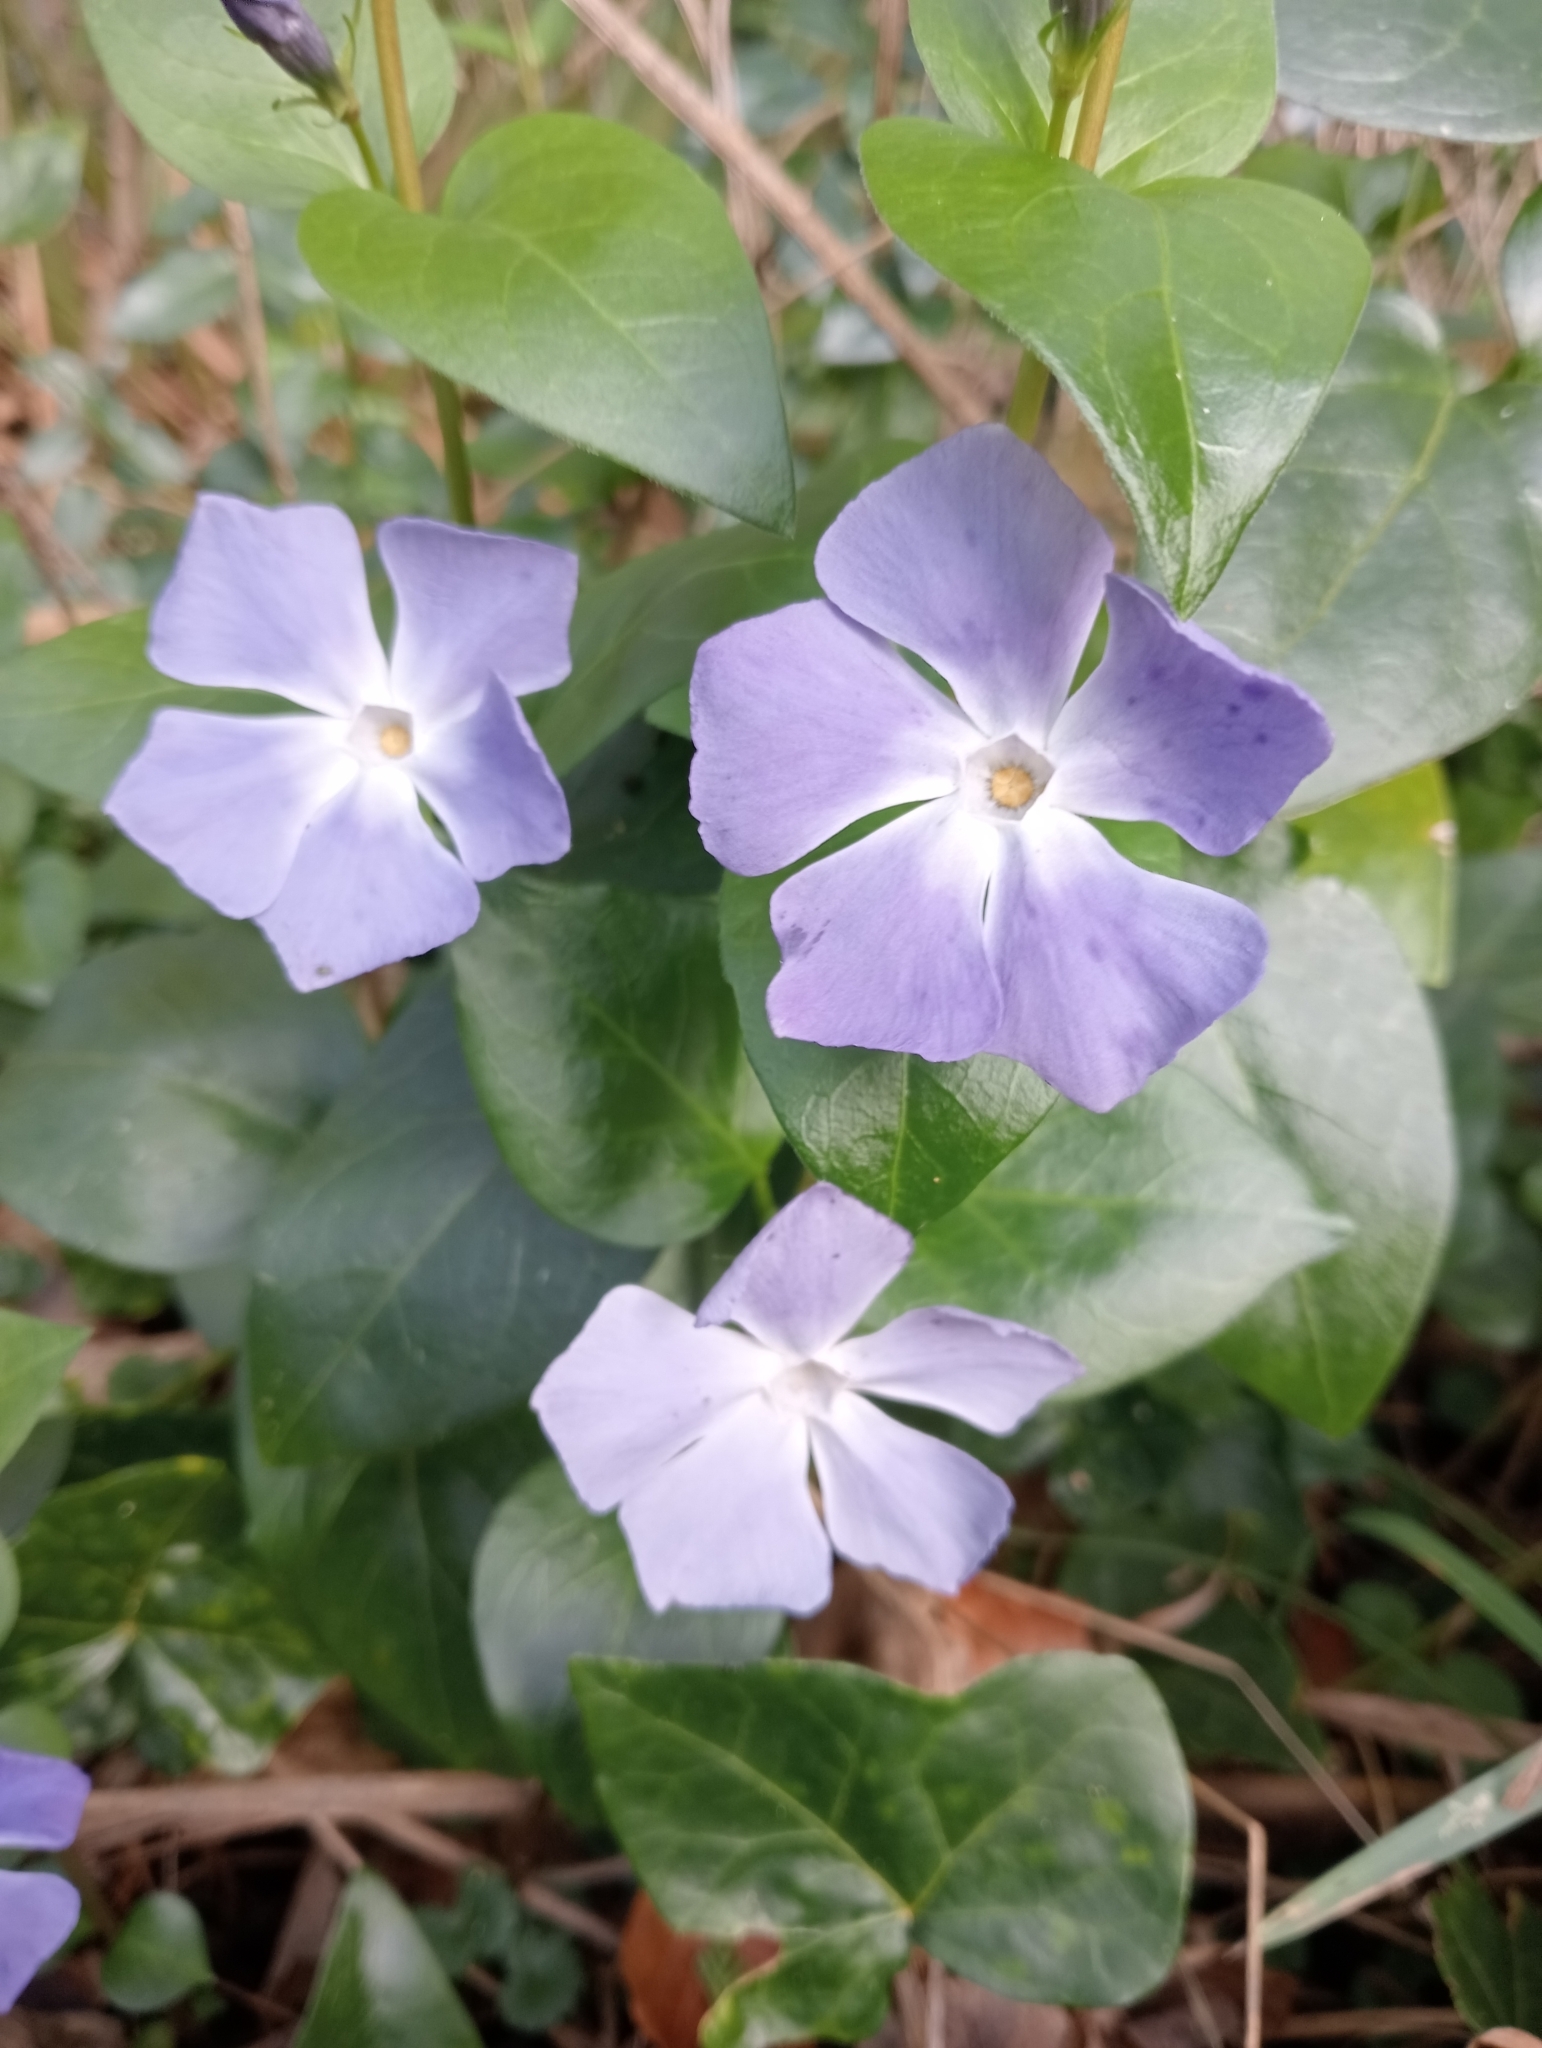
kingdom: Plantae
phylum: Tracheophyta
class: Magnoliopsida
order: Gentianales
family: Apocynaceae
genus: Vinca
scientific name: Vinca major
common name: Greater periwinkle
